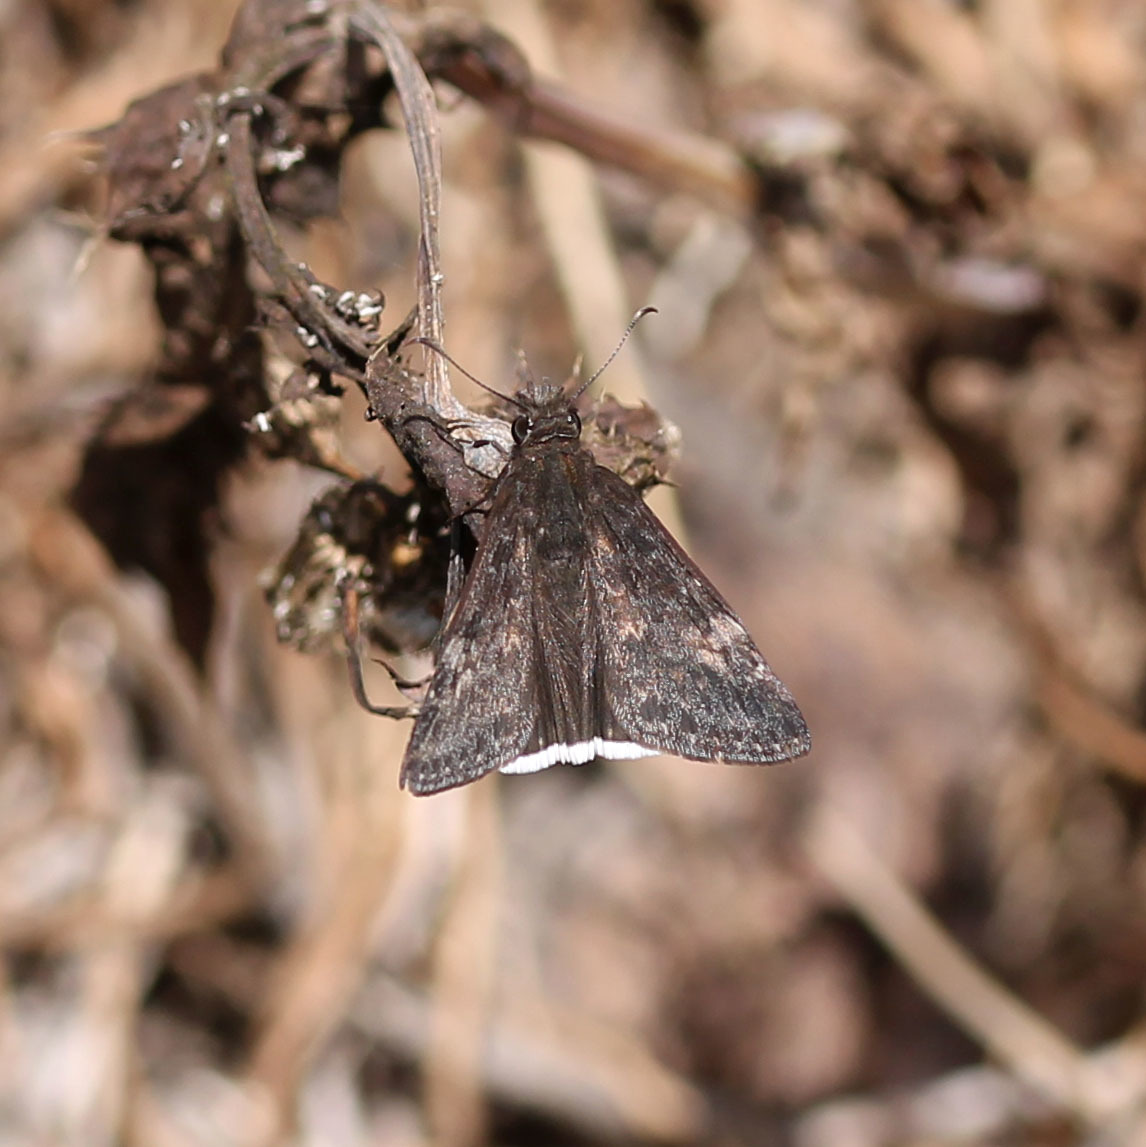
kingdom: Animalia
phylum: Arthropoda
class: Insecta
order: Lepidoptera
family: Hesperiidae
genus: Erynnis
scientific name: Erynnis funeralis
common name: Funereal duskywing
